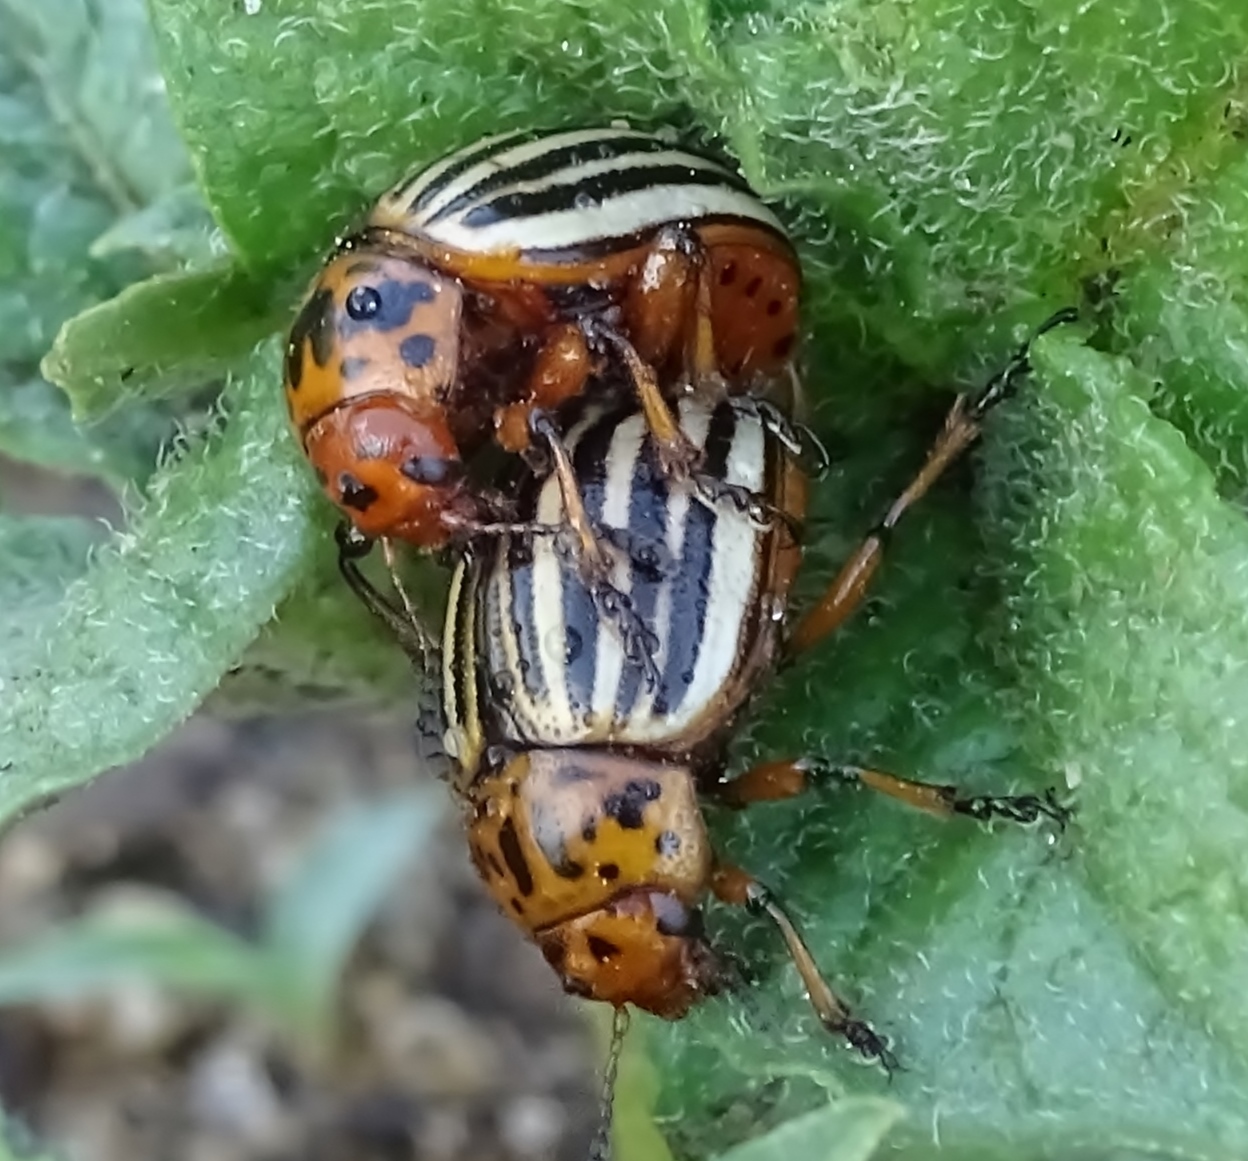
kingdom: Animalia
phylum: Arthropoda
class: Insecta
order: Coleoptera
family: Chrysomelidae
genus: Leptinotarsa
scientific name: Leptinotarsa decemlineata
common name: Colorado potato beetle
